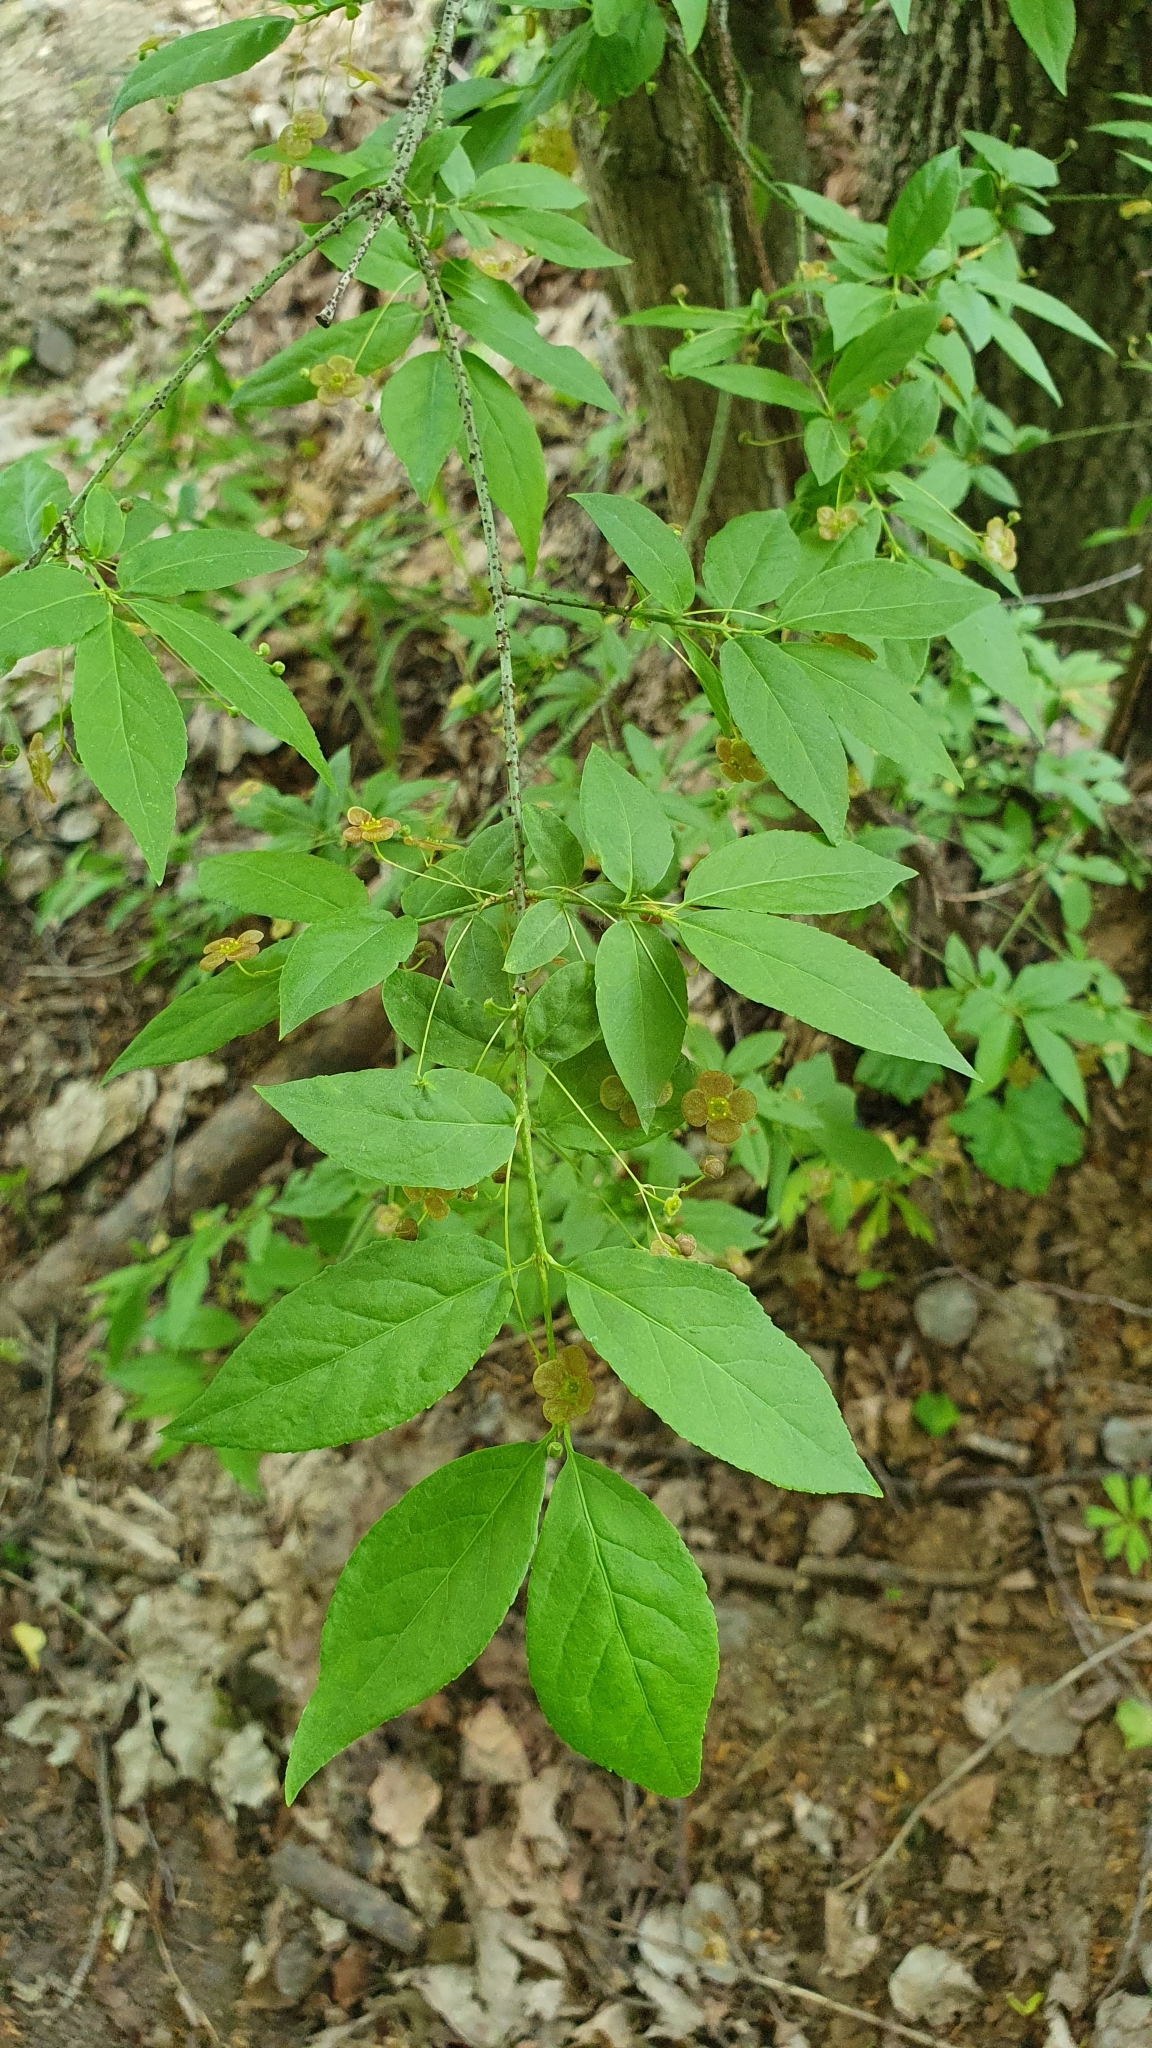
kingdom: Plantae
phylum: Tracheophyta
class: Magnoliopsida
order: Celastrales
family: Celastraceae
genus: Euonymus
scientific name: Euonymus verrucosus
